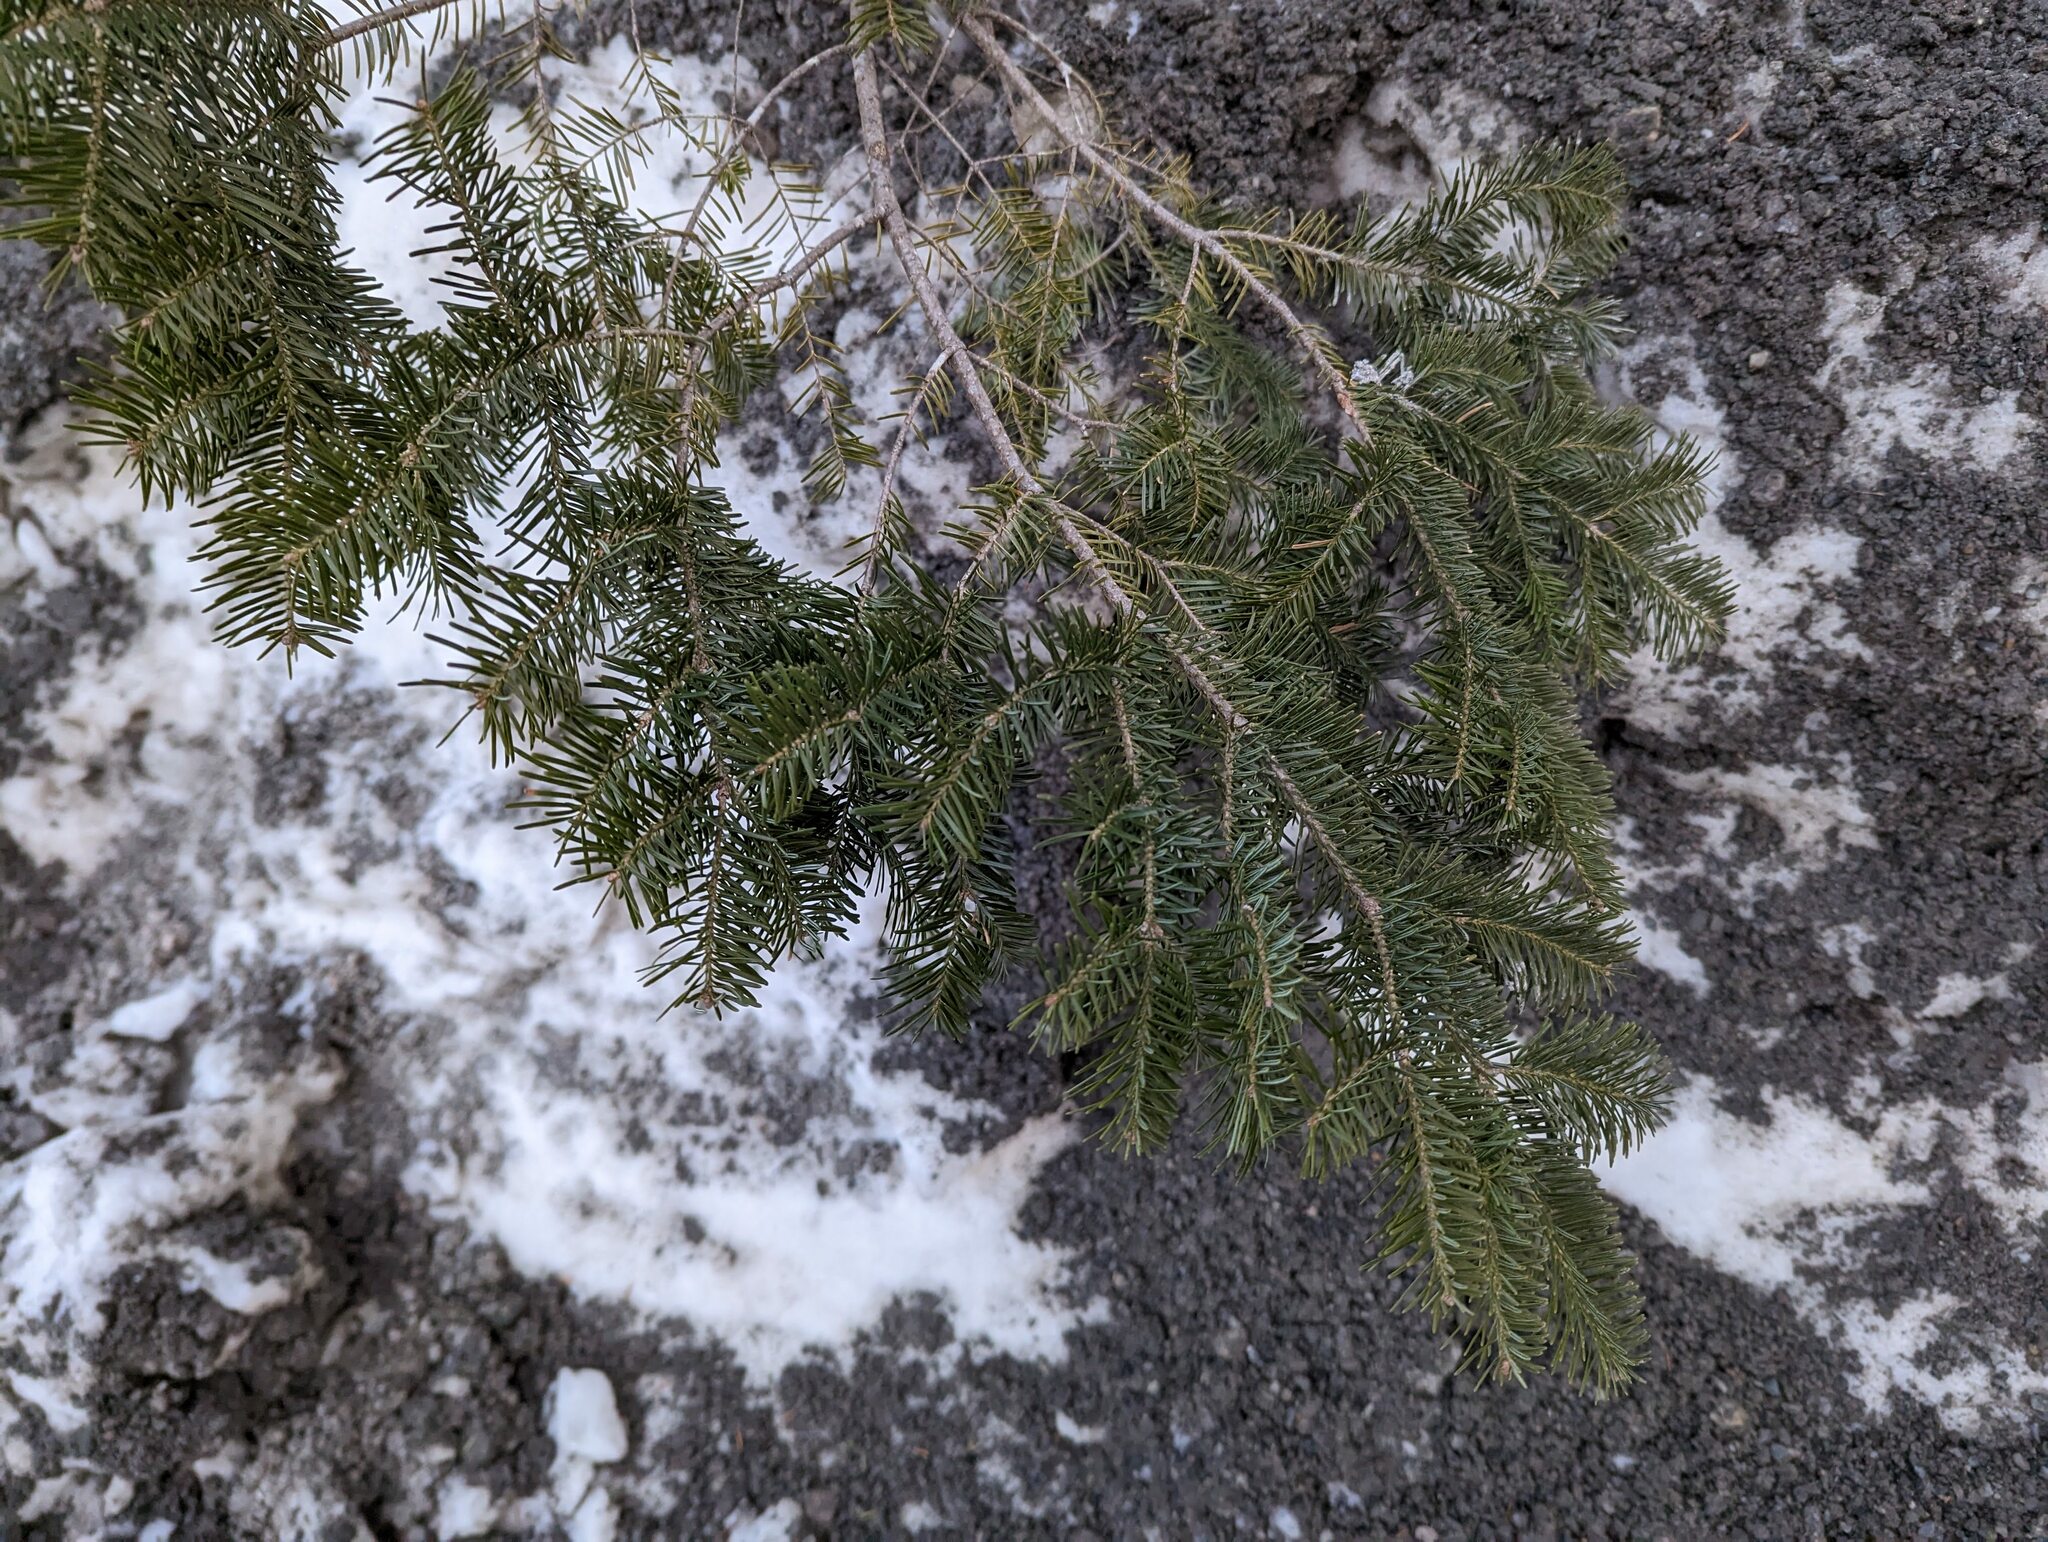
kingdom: Plantae
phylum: Tracheophyta
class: Pinopsida
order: Pinales
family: Pinaceae
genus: Abies
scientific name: Abies balsamea
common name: Balsam fir
